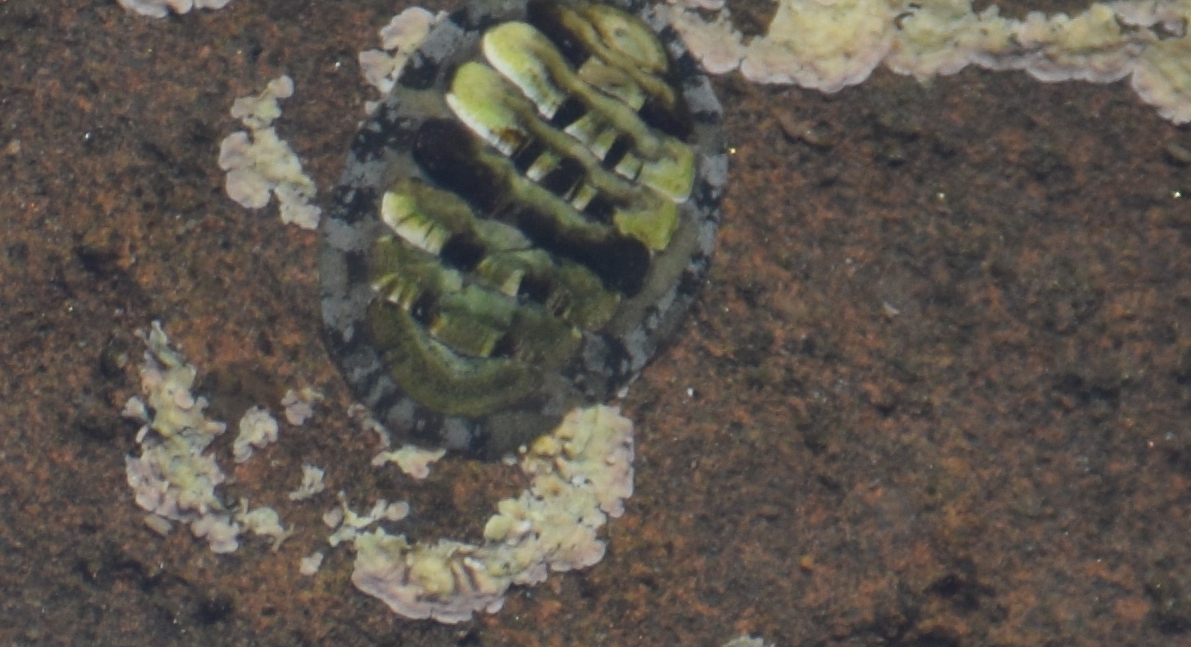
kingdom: Animalia
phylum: Mollusca
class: Polyplacophora
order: Chitonida
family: Tonicellidae
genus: Cyanoplax
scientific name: Cyanoplax hartwegii
